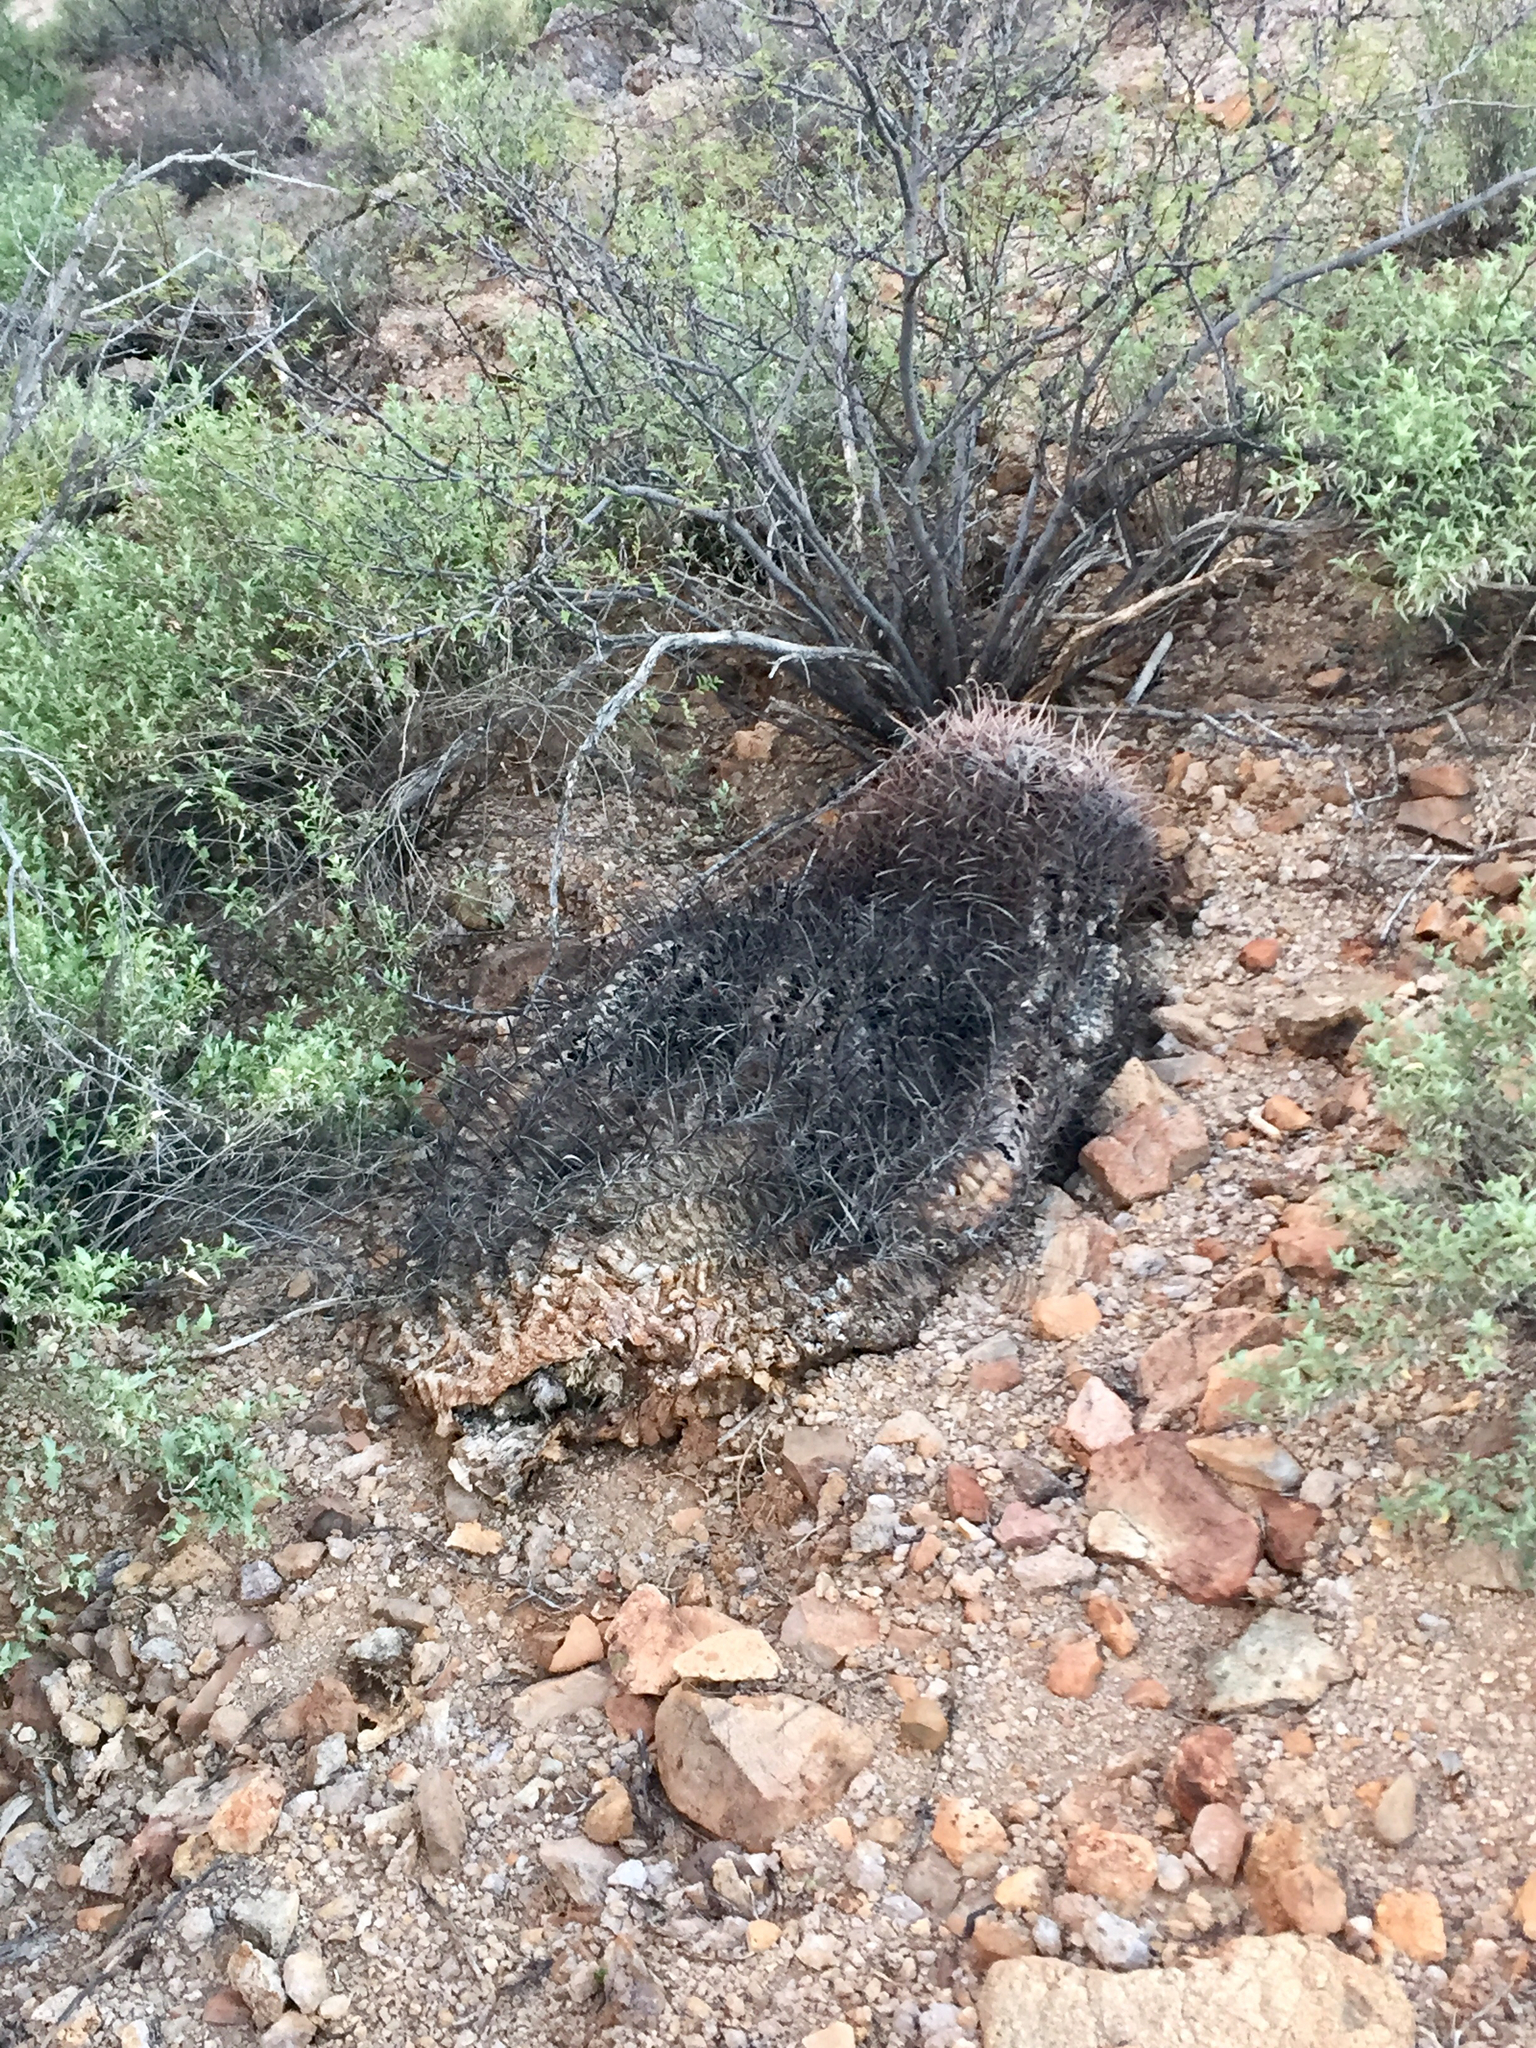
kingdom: Plantae
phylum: Tracheophyta
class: Magnoliopsida
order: Caryophyllales
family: Cactaceae
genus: Ferocactus
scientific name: Ferocactus wislizeni
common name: Candy barrel cactus
